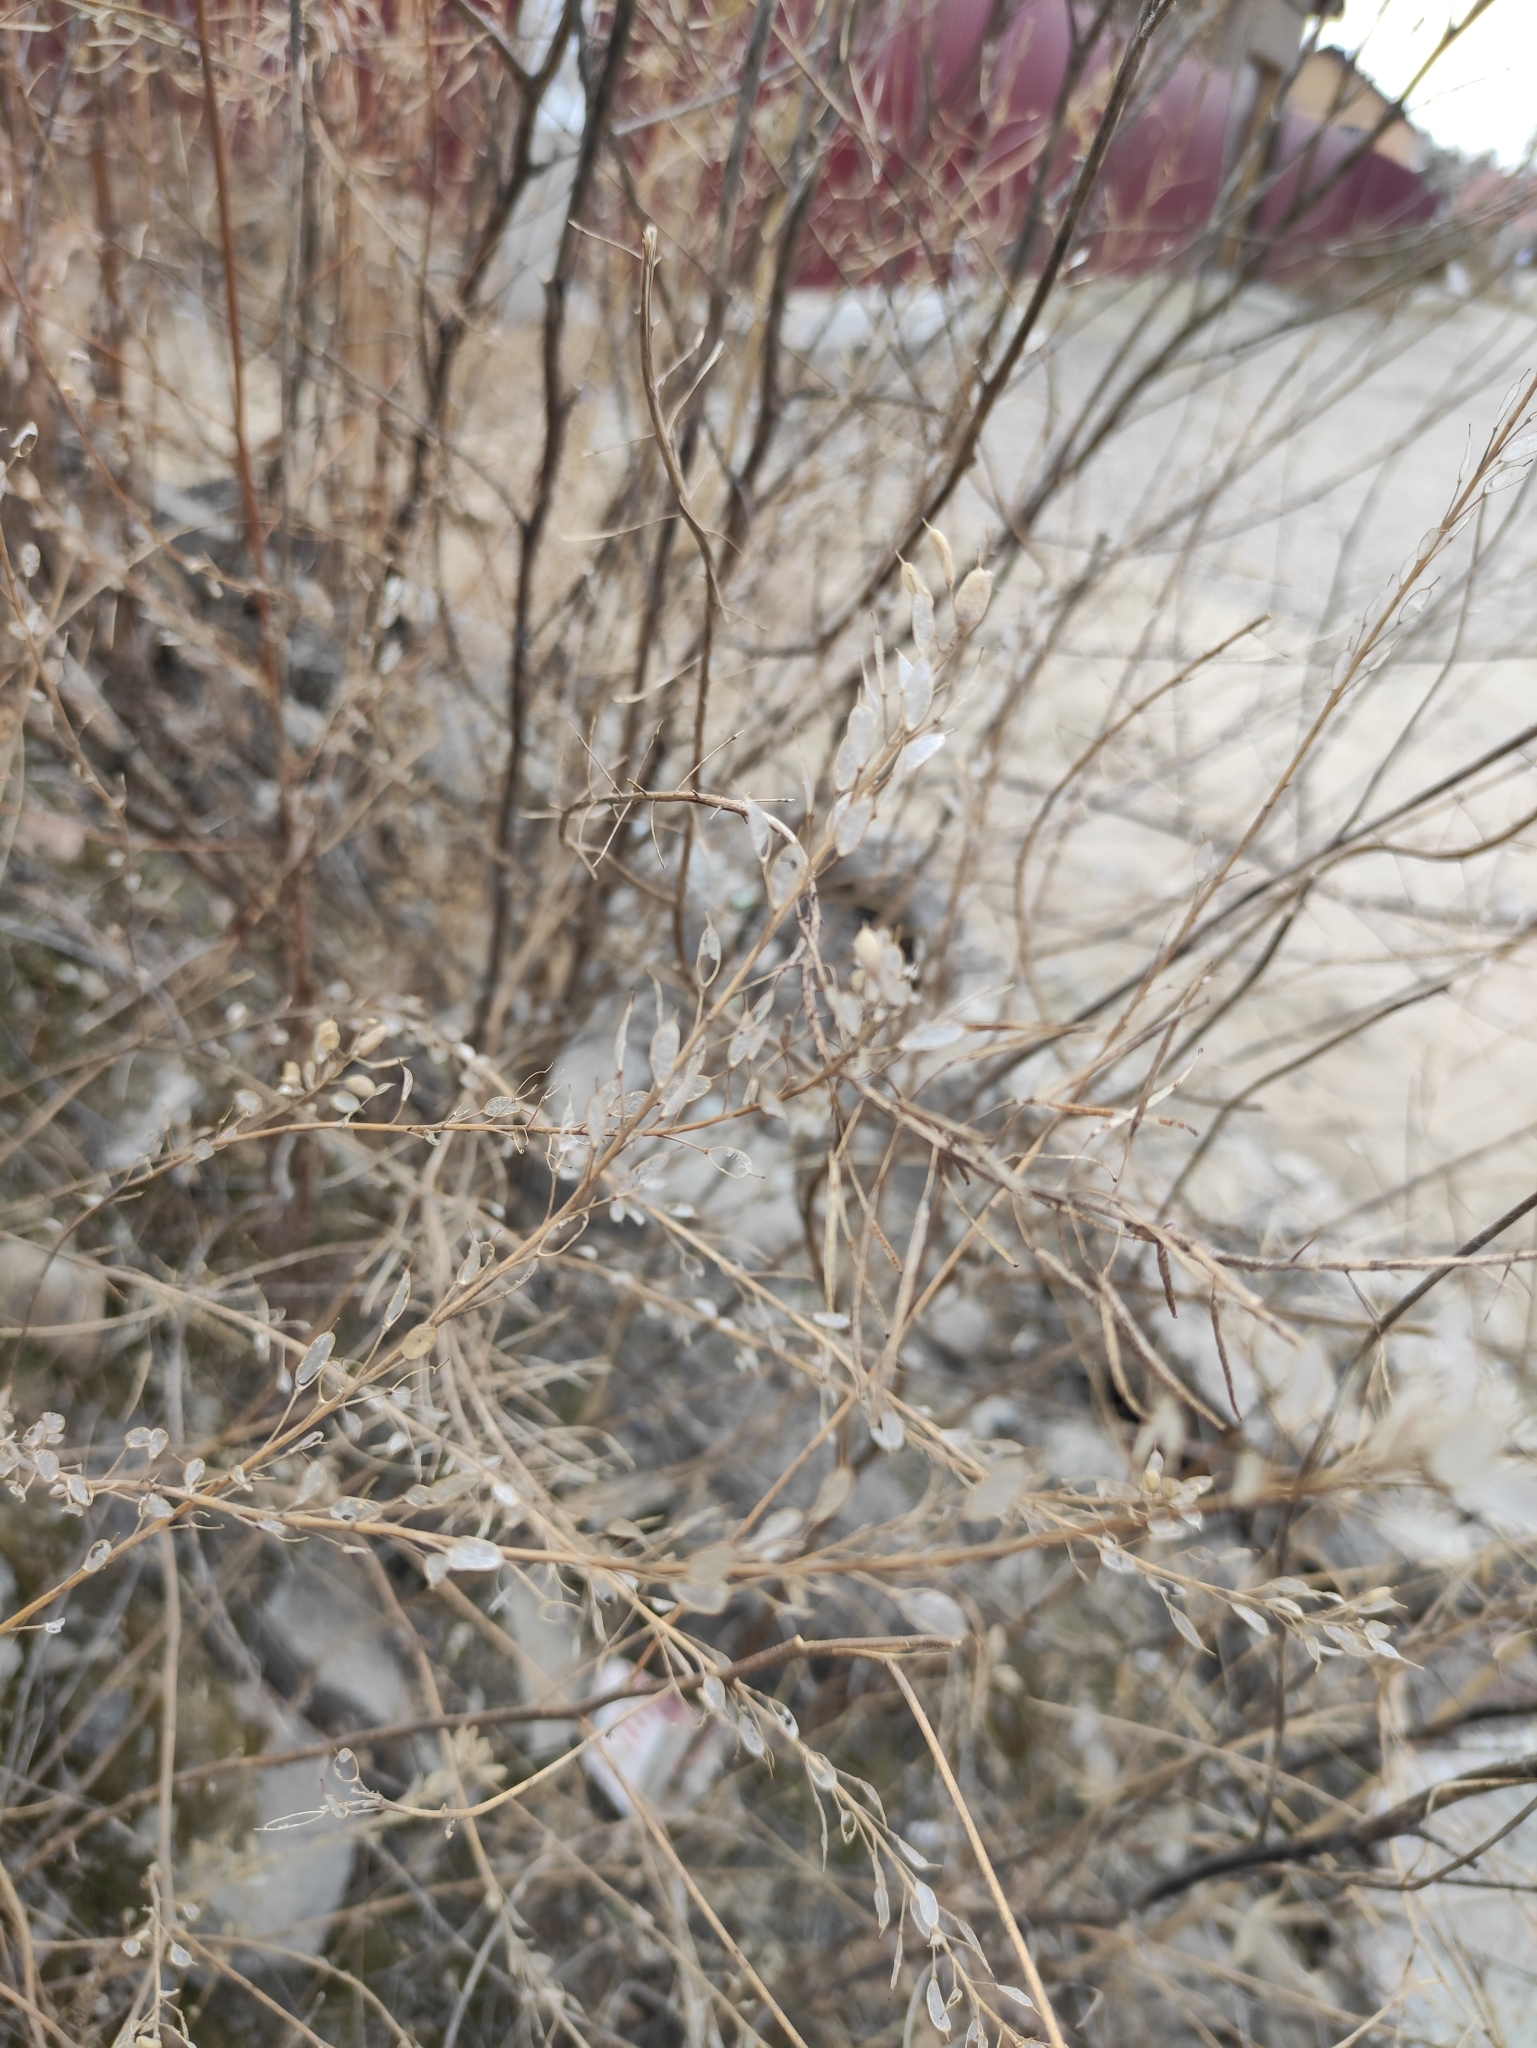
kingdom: Plantae
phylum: Tracheophyta
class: Magnoliopsida
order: Brassicales
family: Brassicaceae
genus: Berteroa
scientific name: Berteroa incana
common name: Hoary alison
